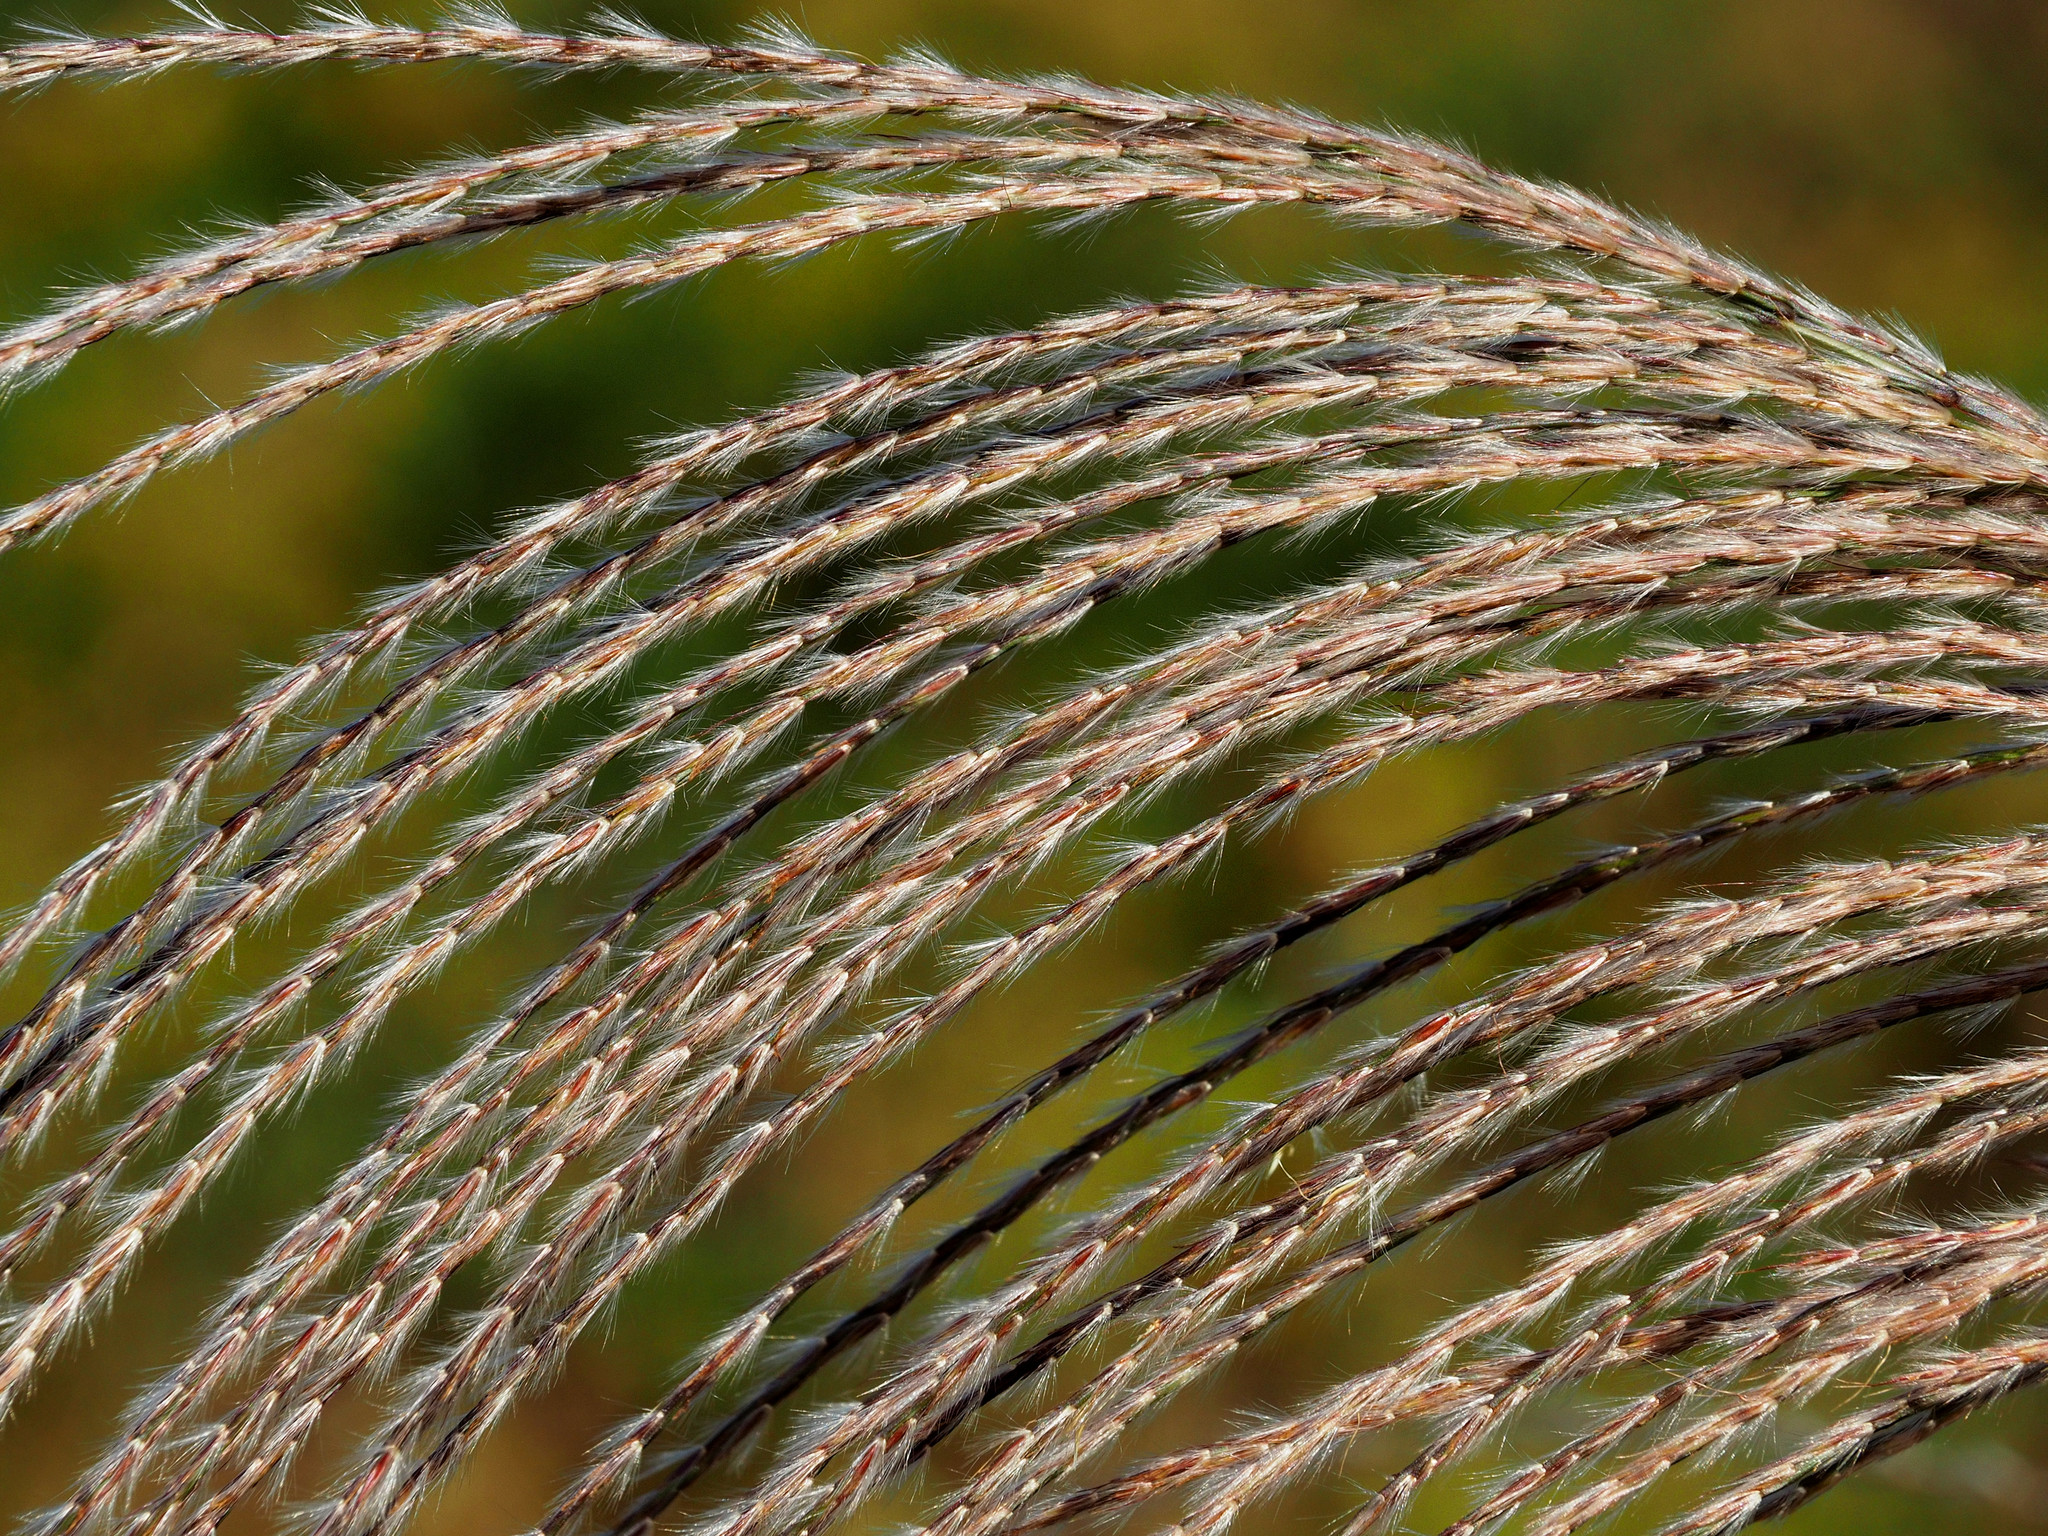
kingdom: Plantae
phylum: Tracheophyta
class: Liliopsida
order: Poales
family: Poaceae
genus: Miscanthus
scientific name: Miscanthus sinensis
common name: Chinese silvergrass
